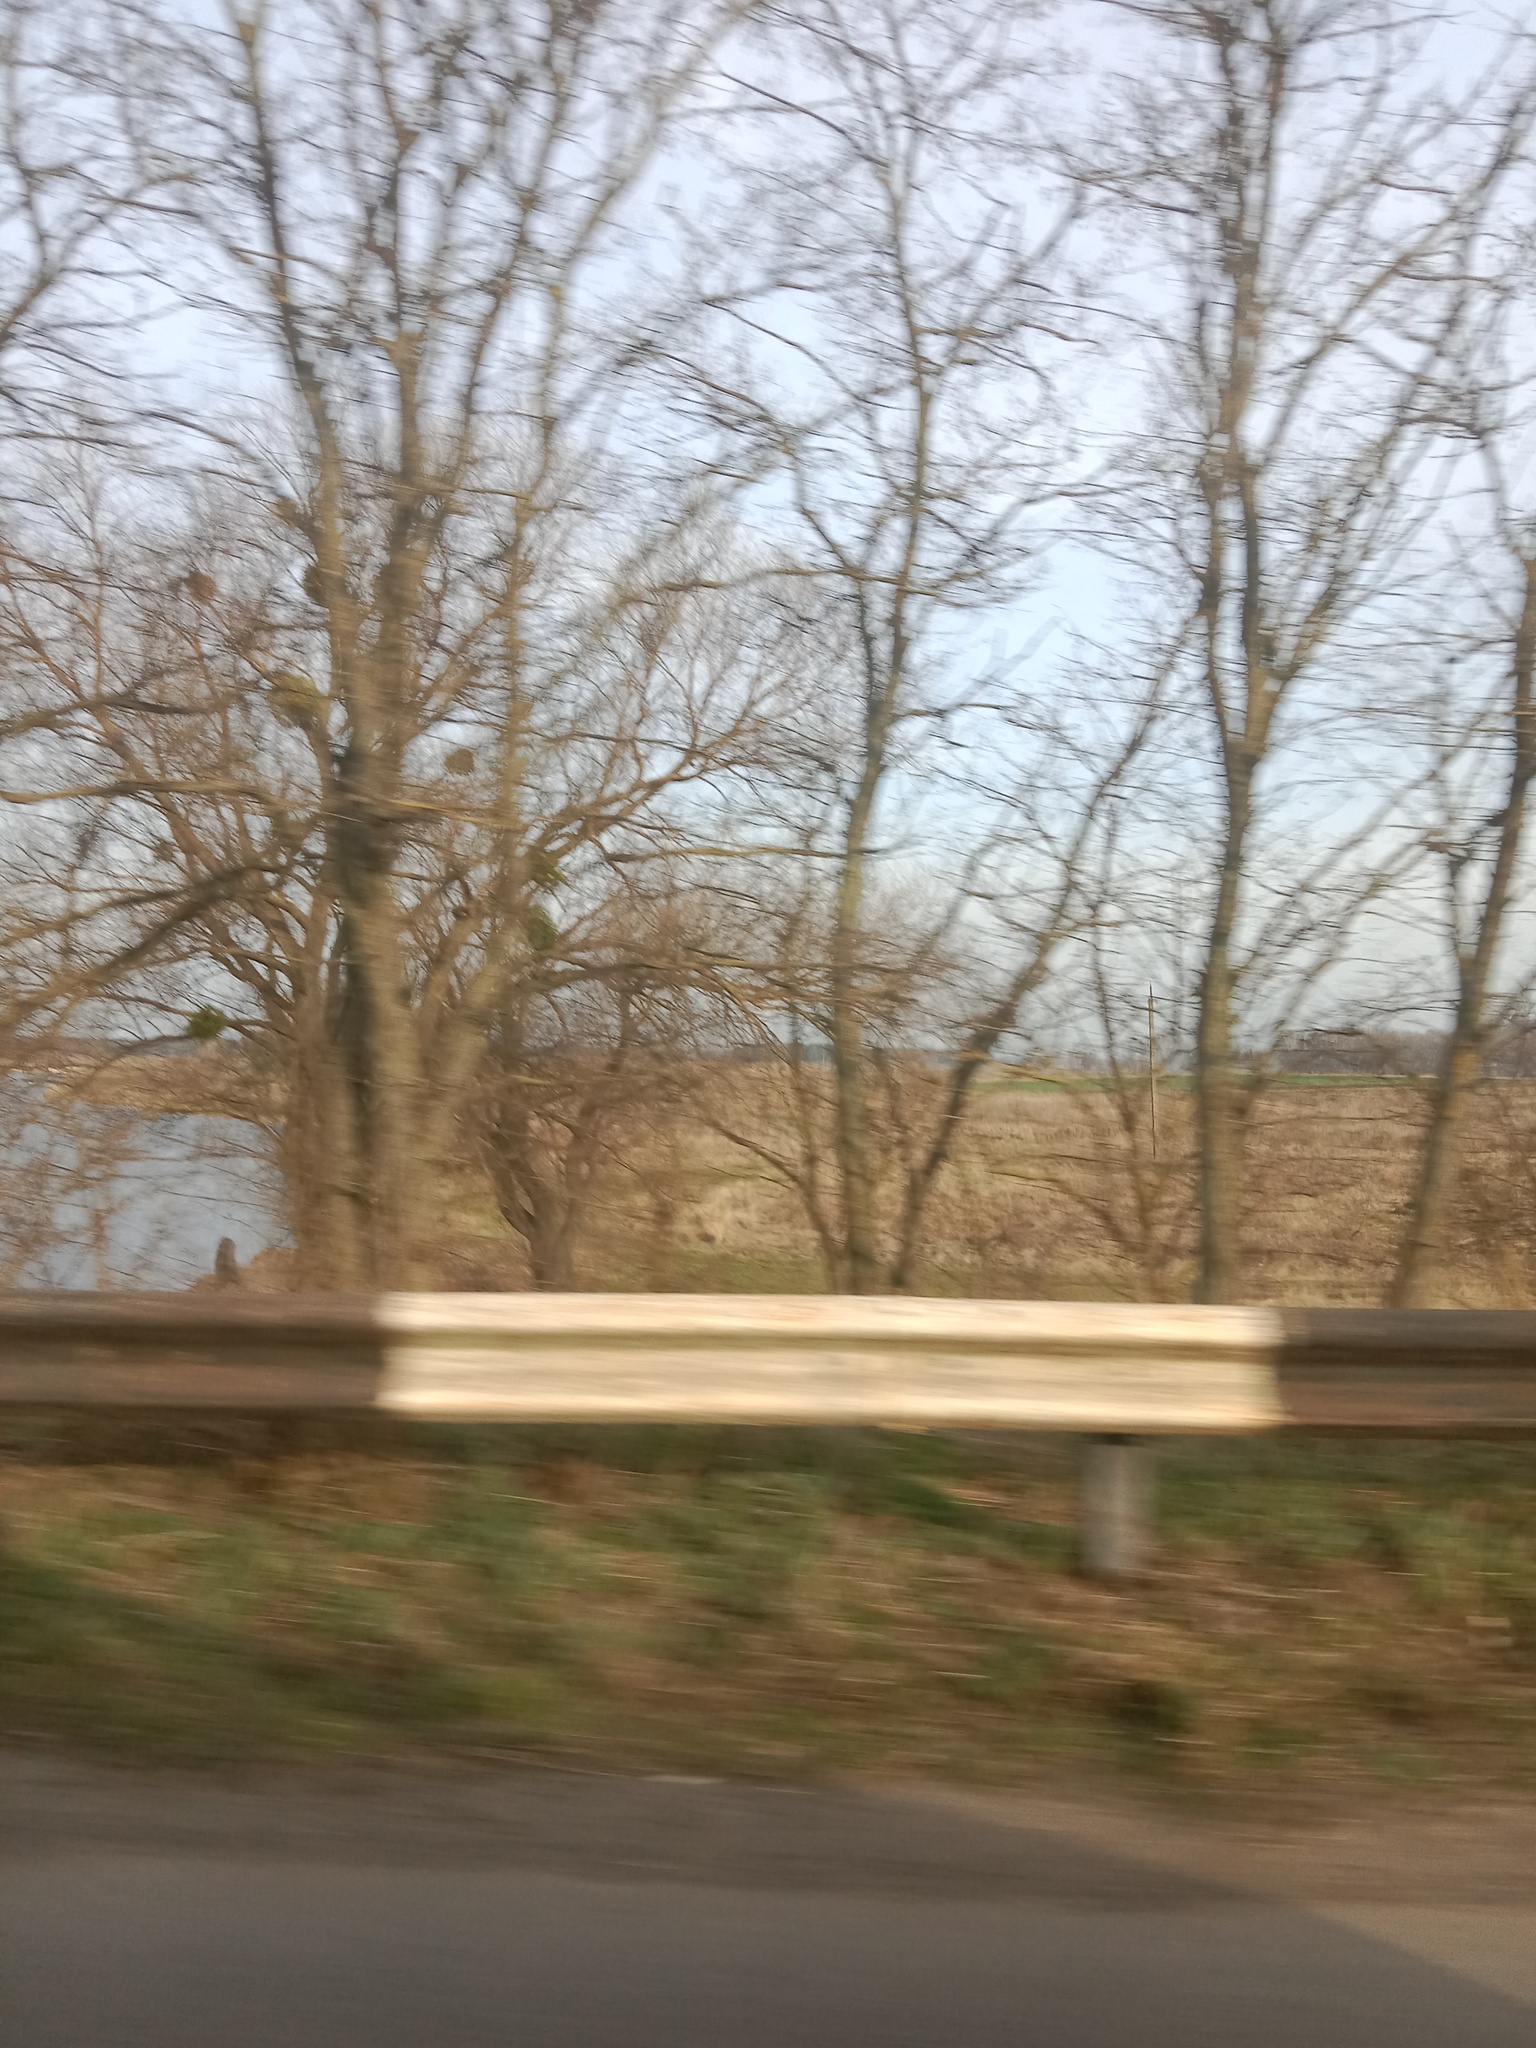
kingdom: Plantae
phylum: Tracheophyta
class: Magnoliopsida
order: Santalales
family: Viscaceae
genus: Viscum
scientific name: Viscum album
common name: Mistletoe
